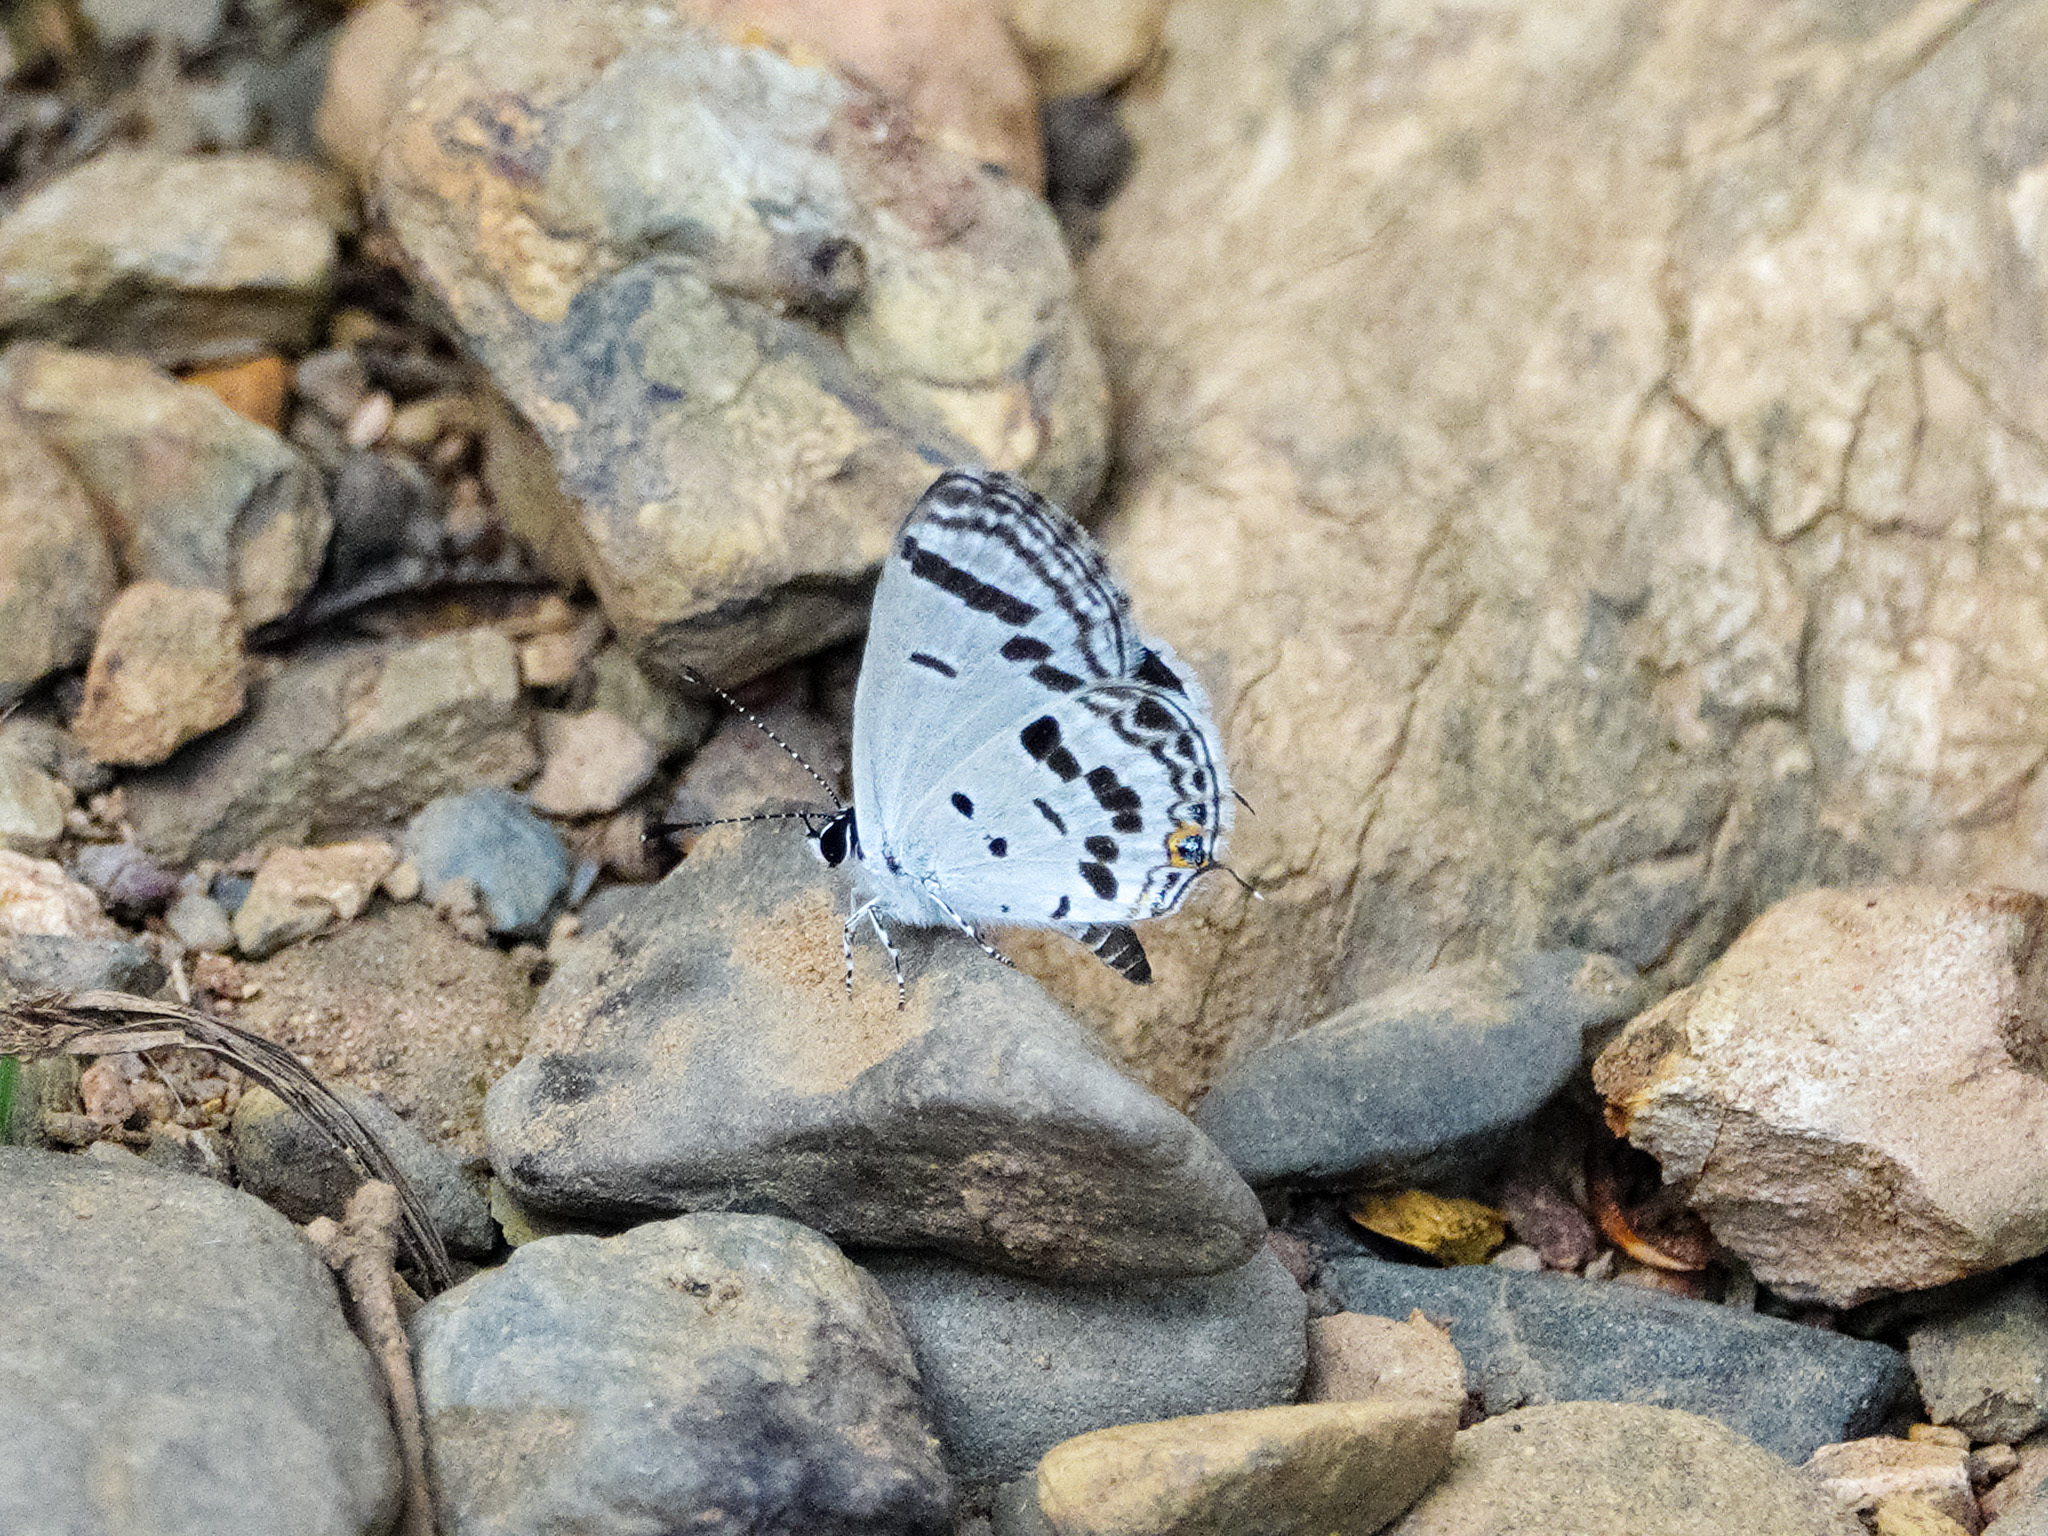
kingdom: Animalia
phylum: Arthropoda
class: Insecta
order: Lepidoptera
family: Lycaenidae
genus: Tongeia
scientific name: Tongeia
